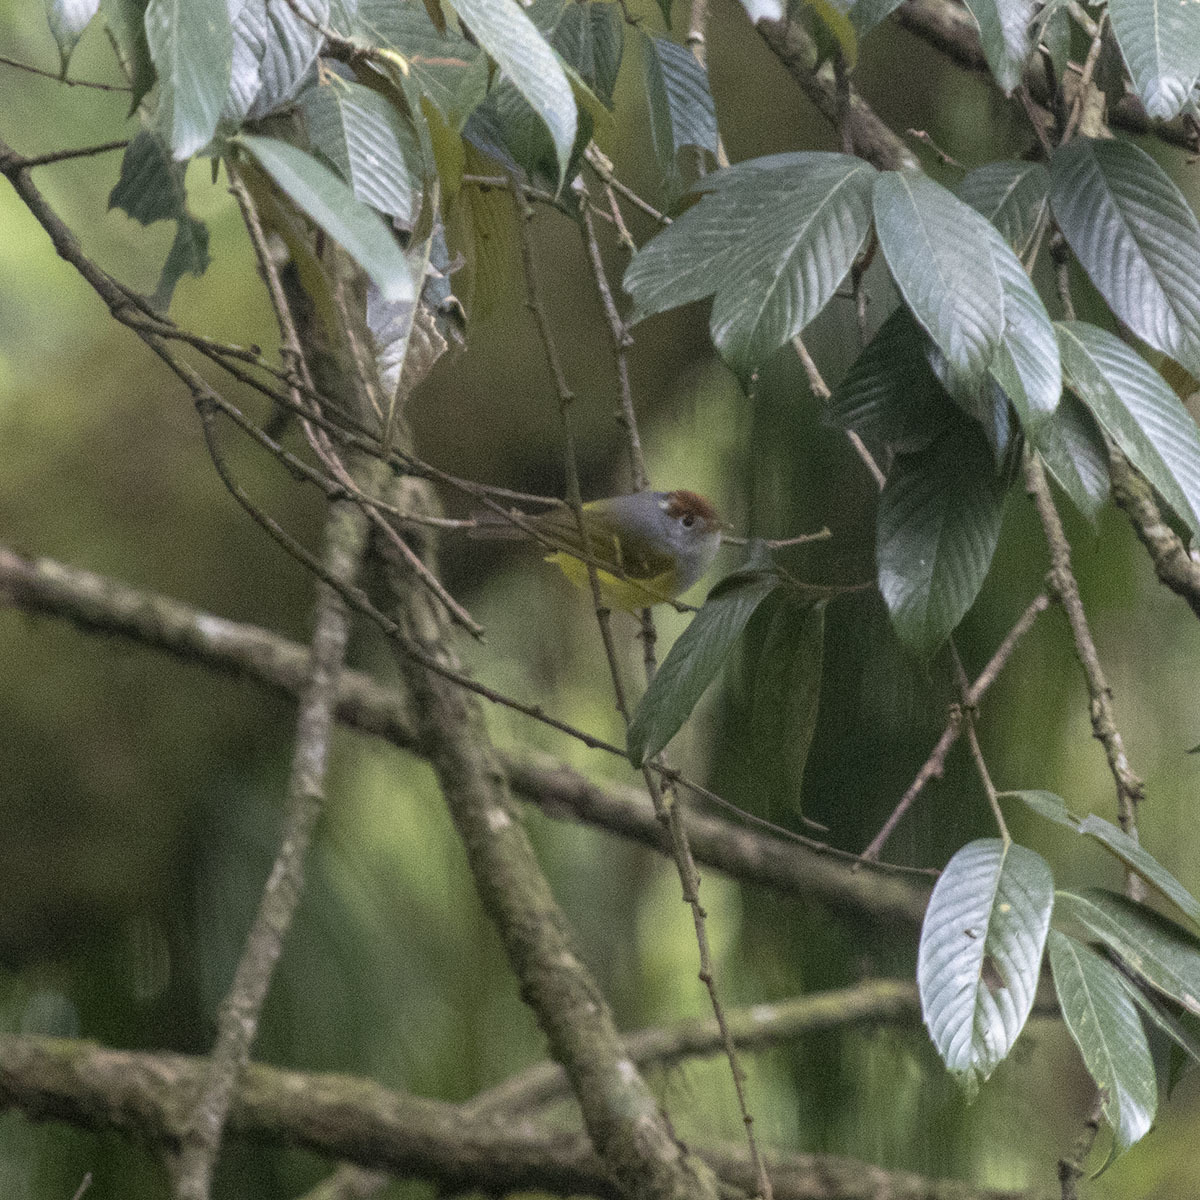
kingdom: Animalia
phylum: Chordata
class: Aves
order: Passeriformes
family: Phylloscopidae
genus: Seicercus
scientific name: Seicercus castaniceps
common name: Chestnut-crowned warbler
